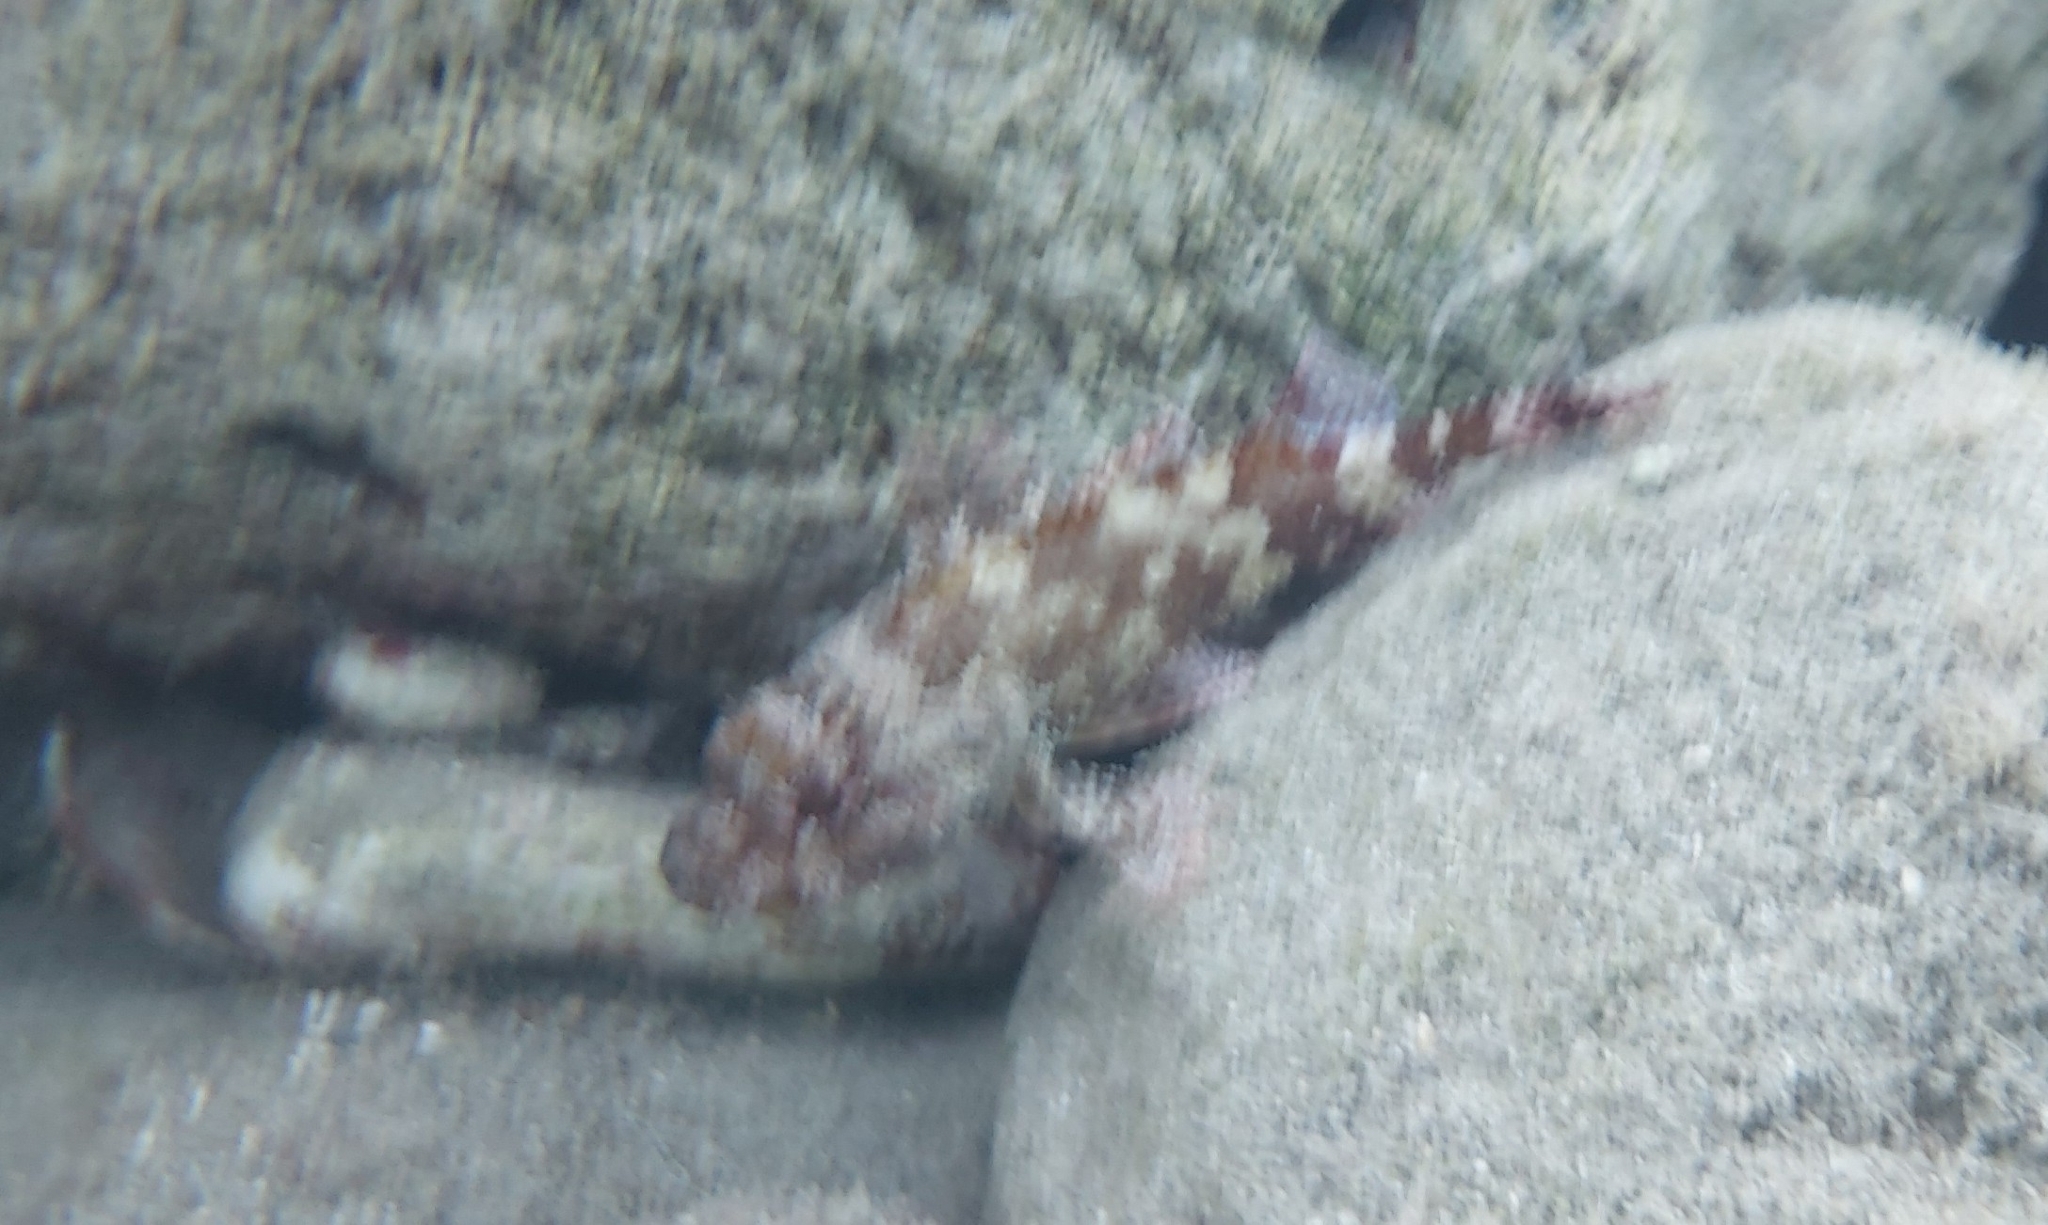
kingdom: Animalia
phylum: Chordata
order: Scorpaeniformes
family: Scorpaenidae
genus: Scorpaena
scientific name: Scorpaena maderensis
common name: Madeira rockfish
